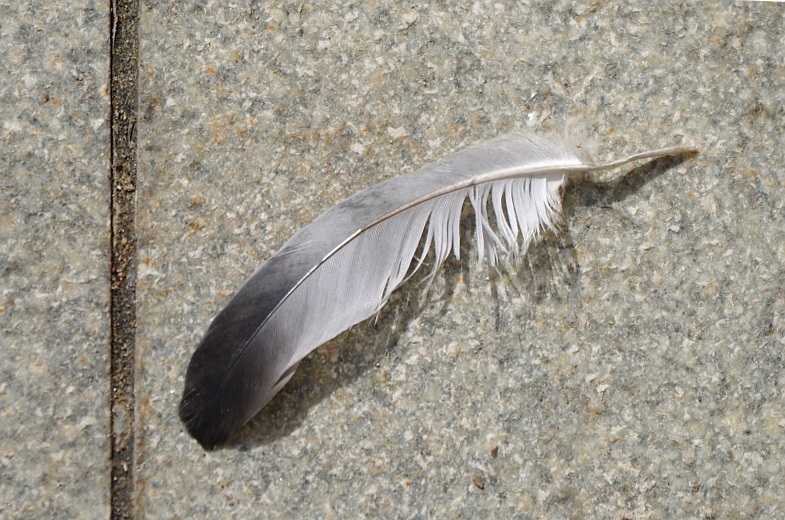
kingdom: Animalia
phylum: Chordata
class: Aves
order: Columbiformes
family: Columbidae
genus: Columba
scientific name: Columba livia
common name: Rock pigeon
